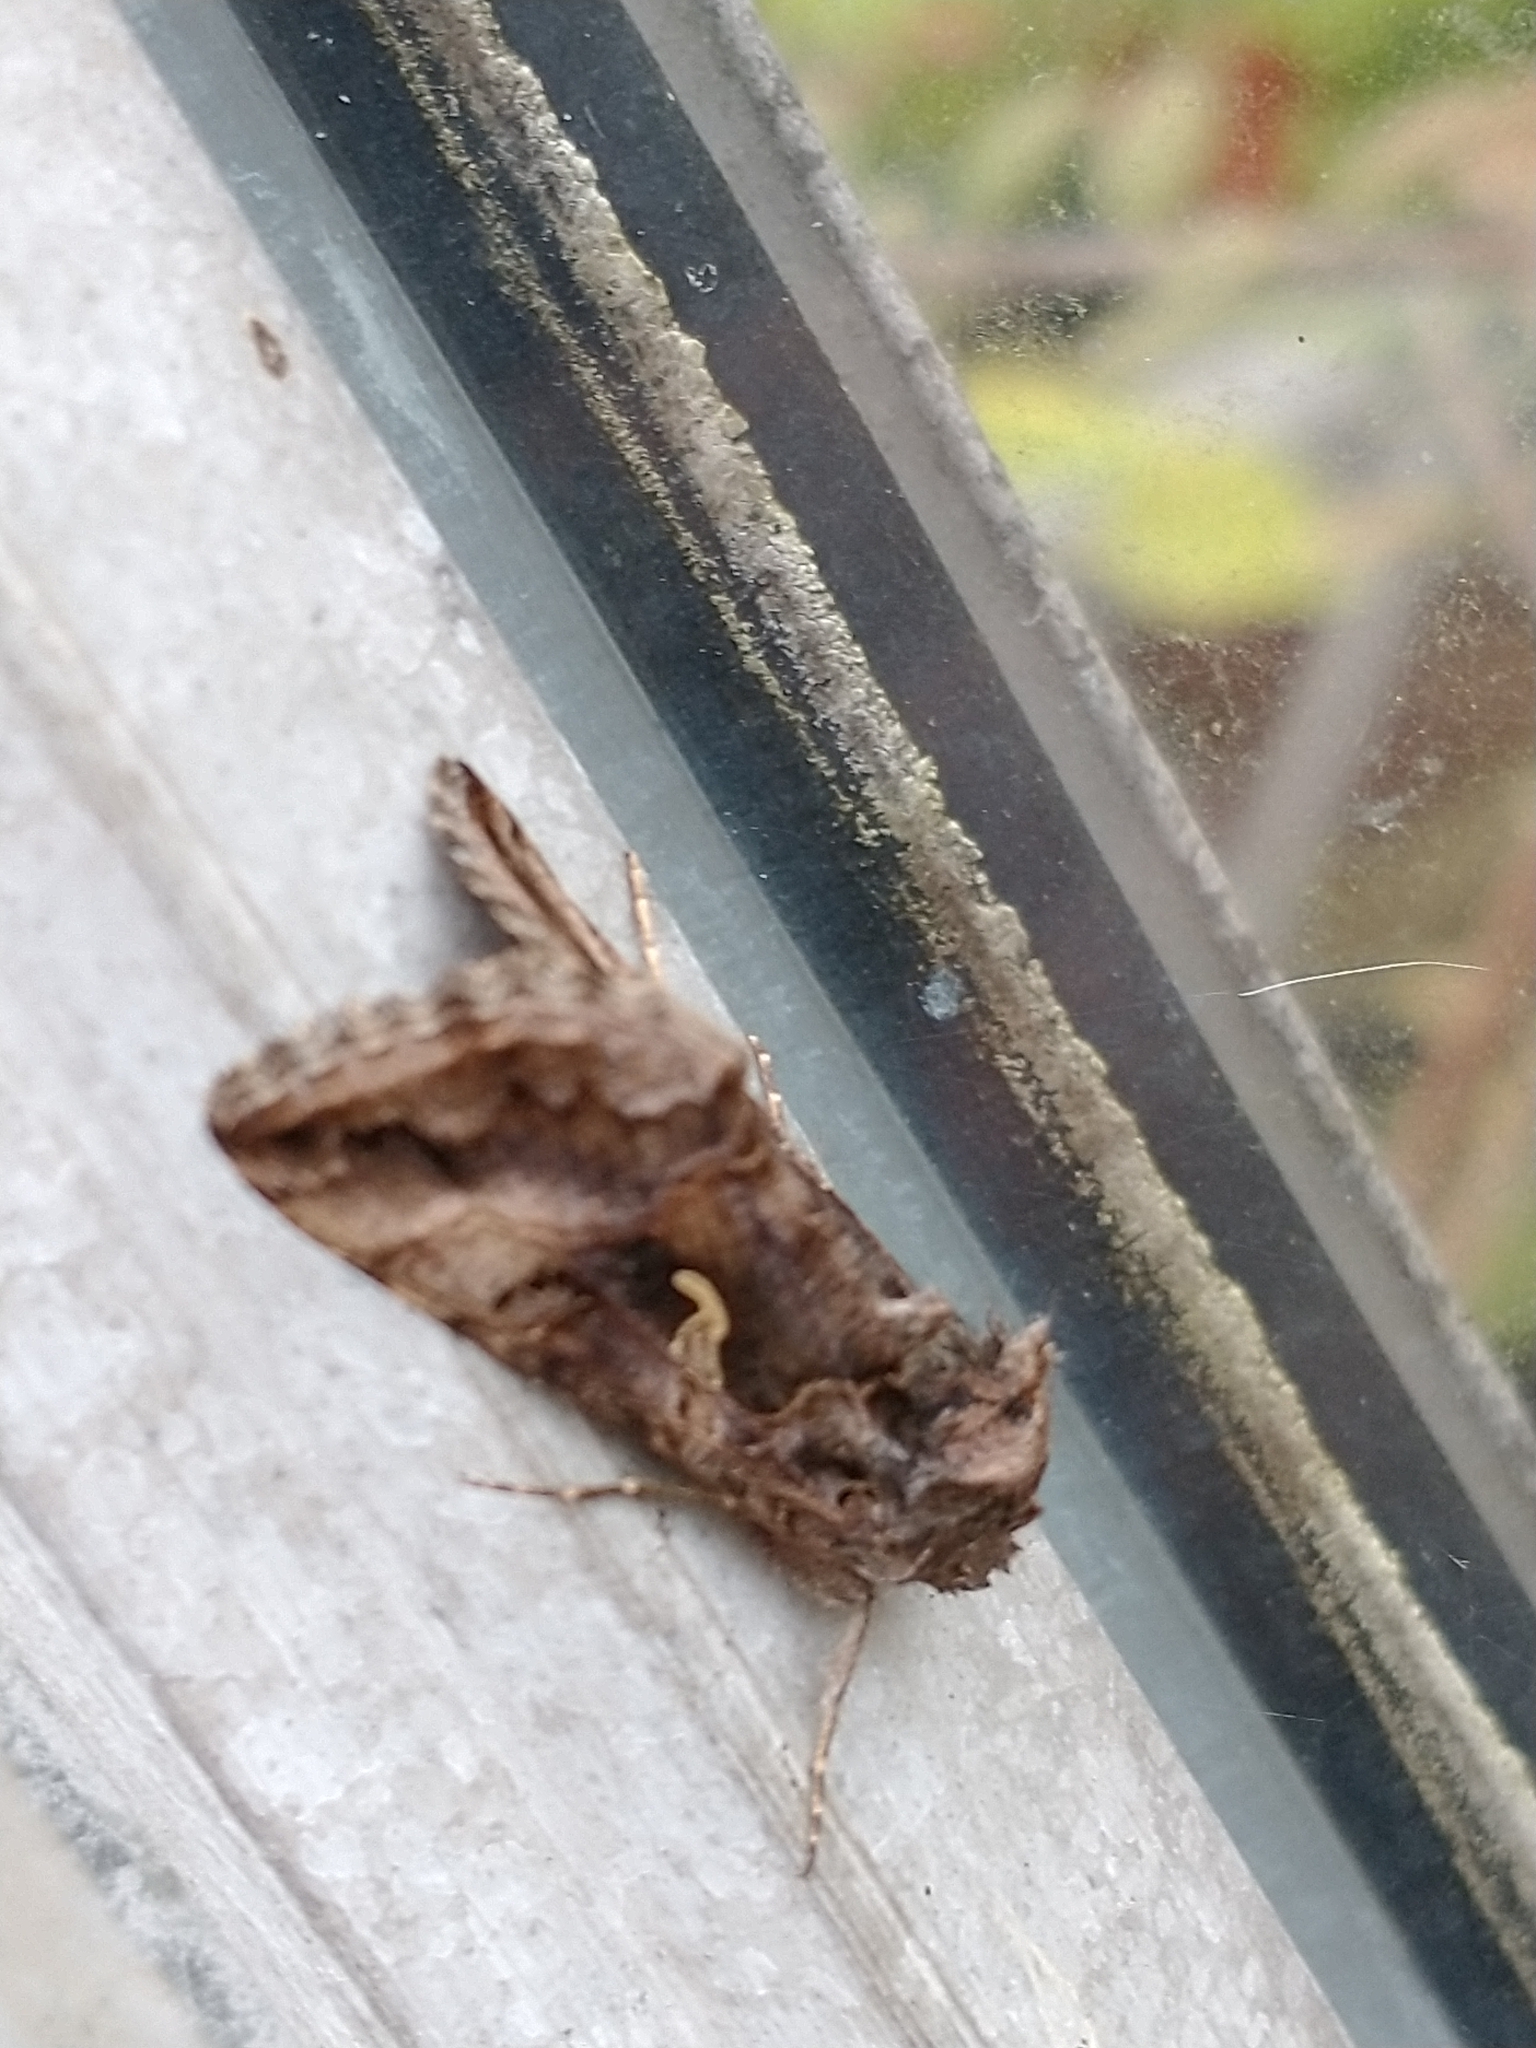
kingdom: Animalia
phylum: Arthropoda
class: Insecta
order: Lepidoptera
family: Noctuidae
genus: Autographa
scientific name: Autographa gamma
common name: Silver y
